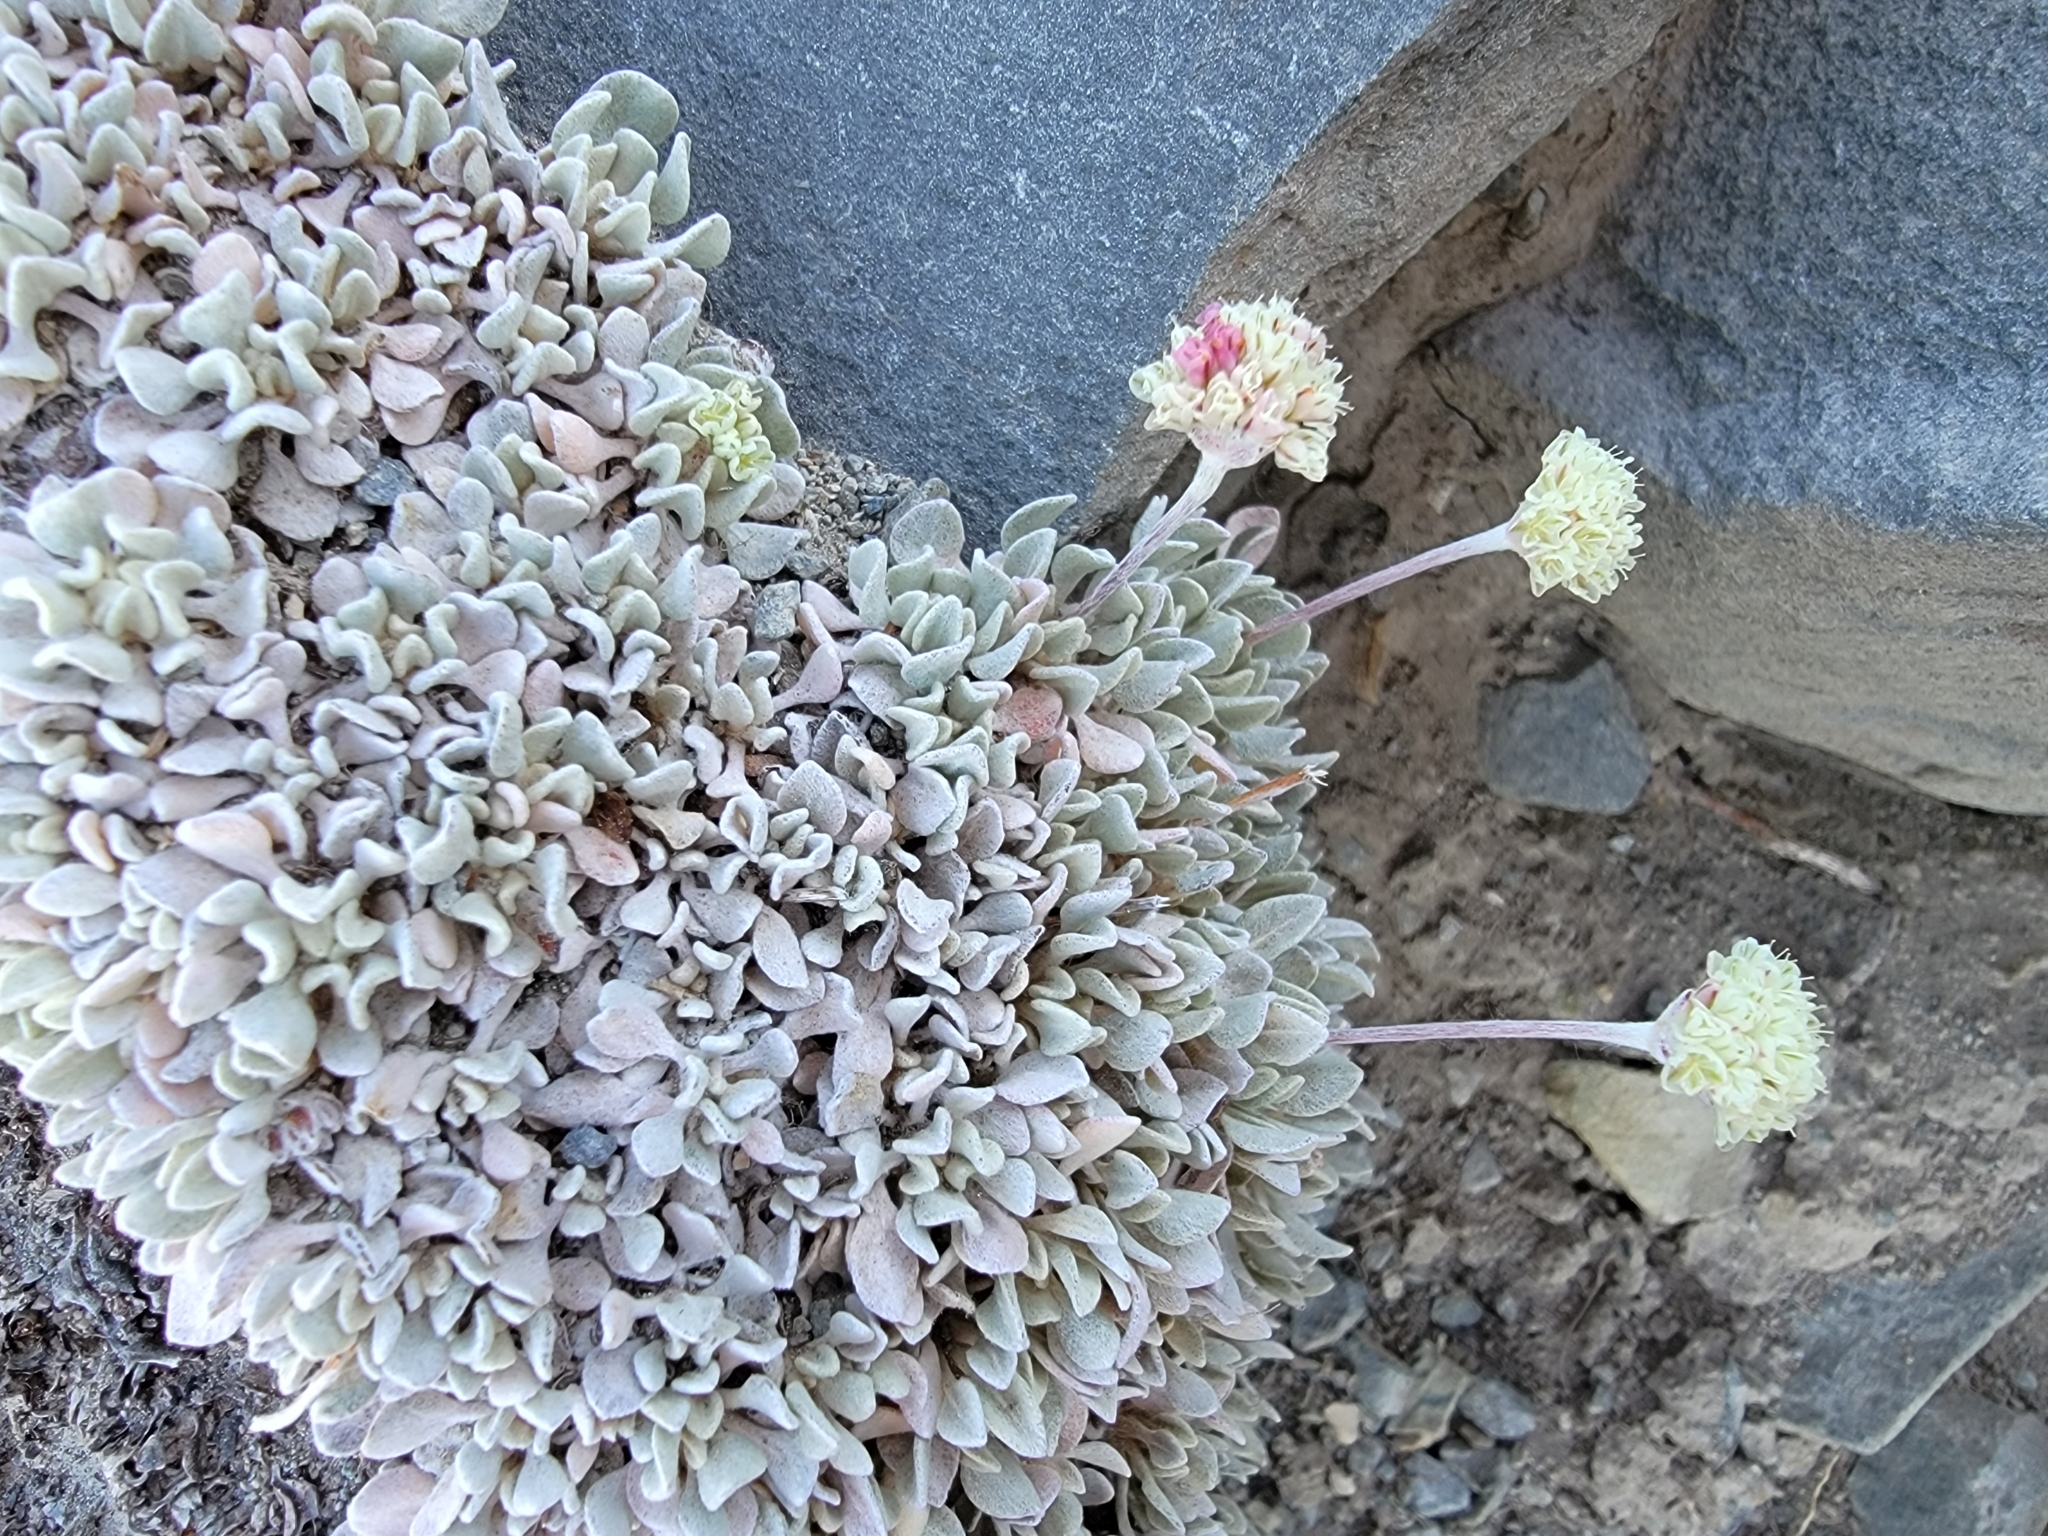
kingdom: Plantae
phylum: Tracheophyta
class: Magnoliopsida
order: Caryophyllales
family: Polygonaceae
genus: Eriogonum
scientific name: Eriogonum ovalifolium
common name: Cushion buckwheat
